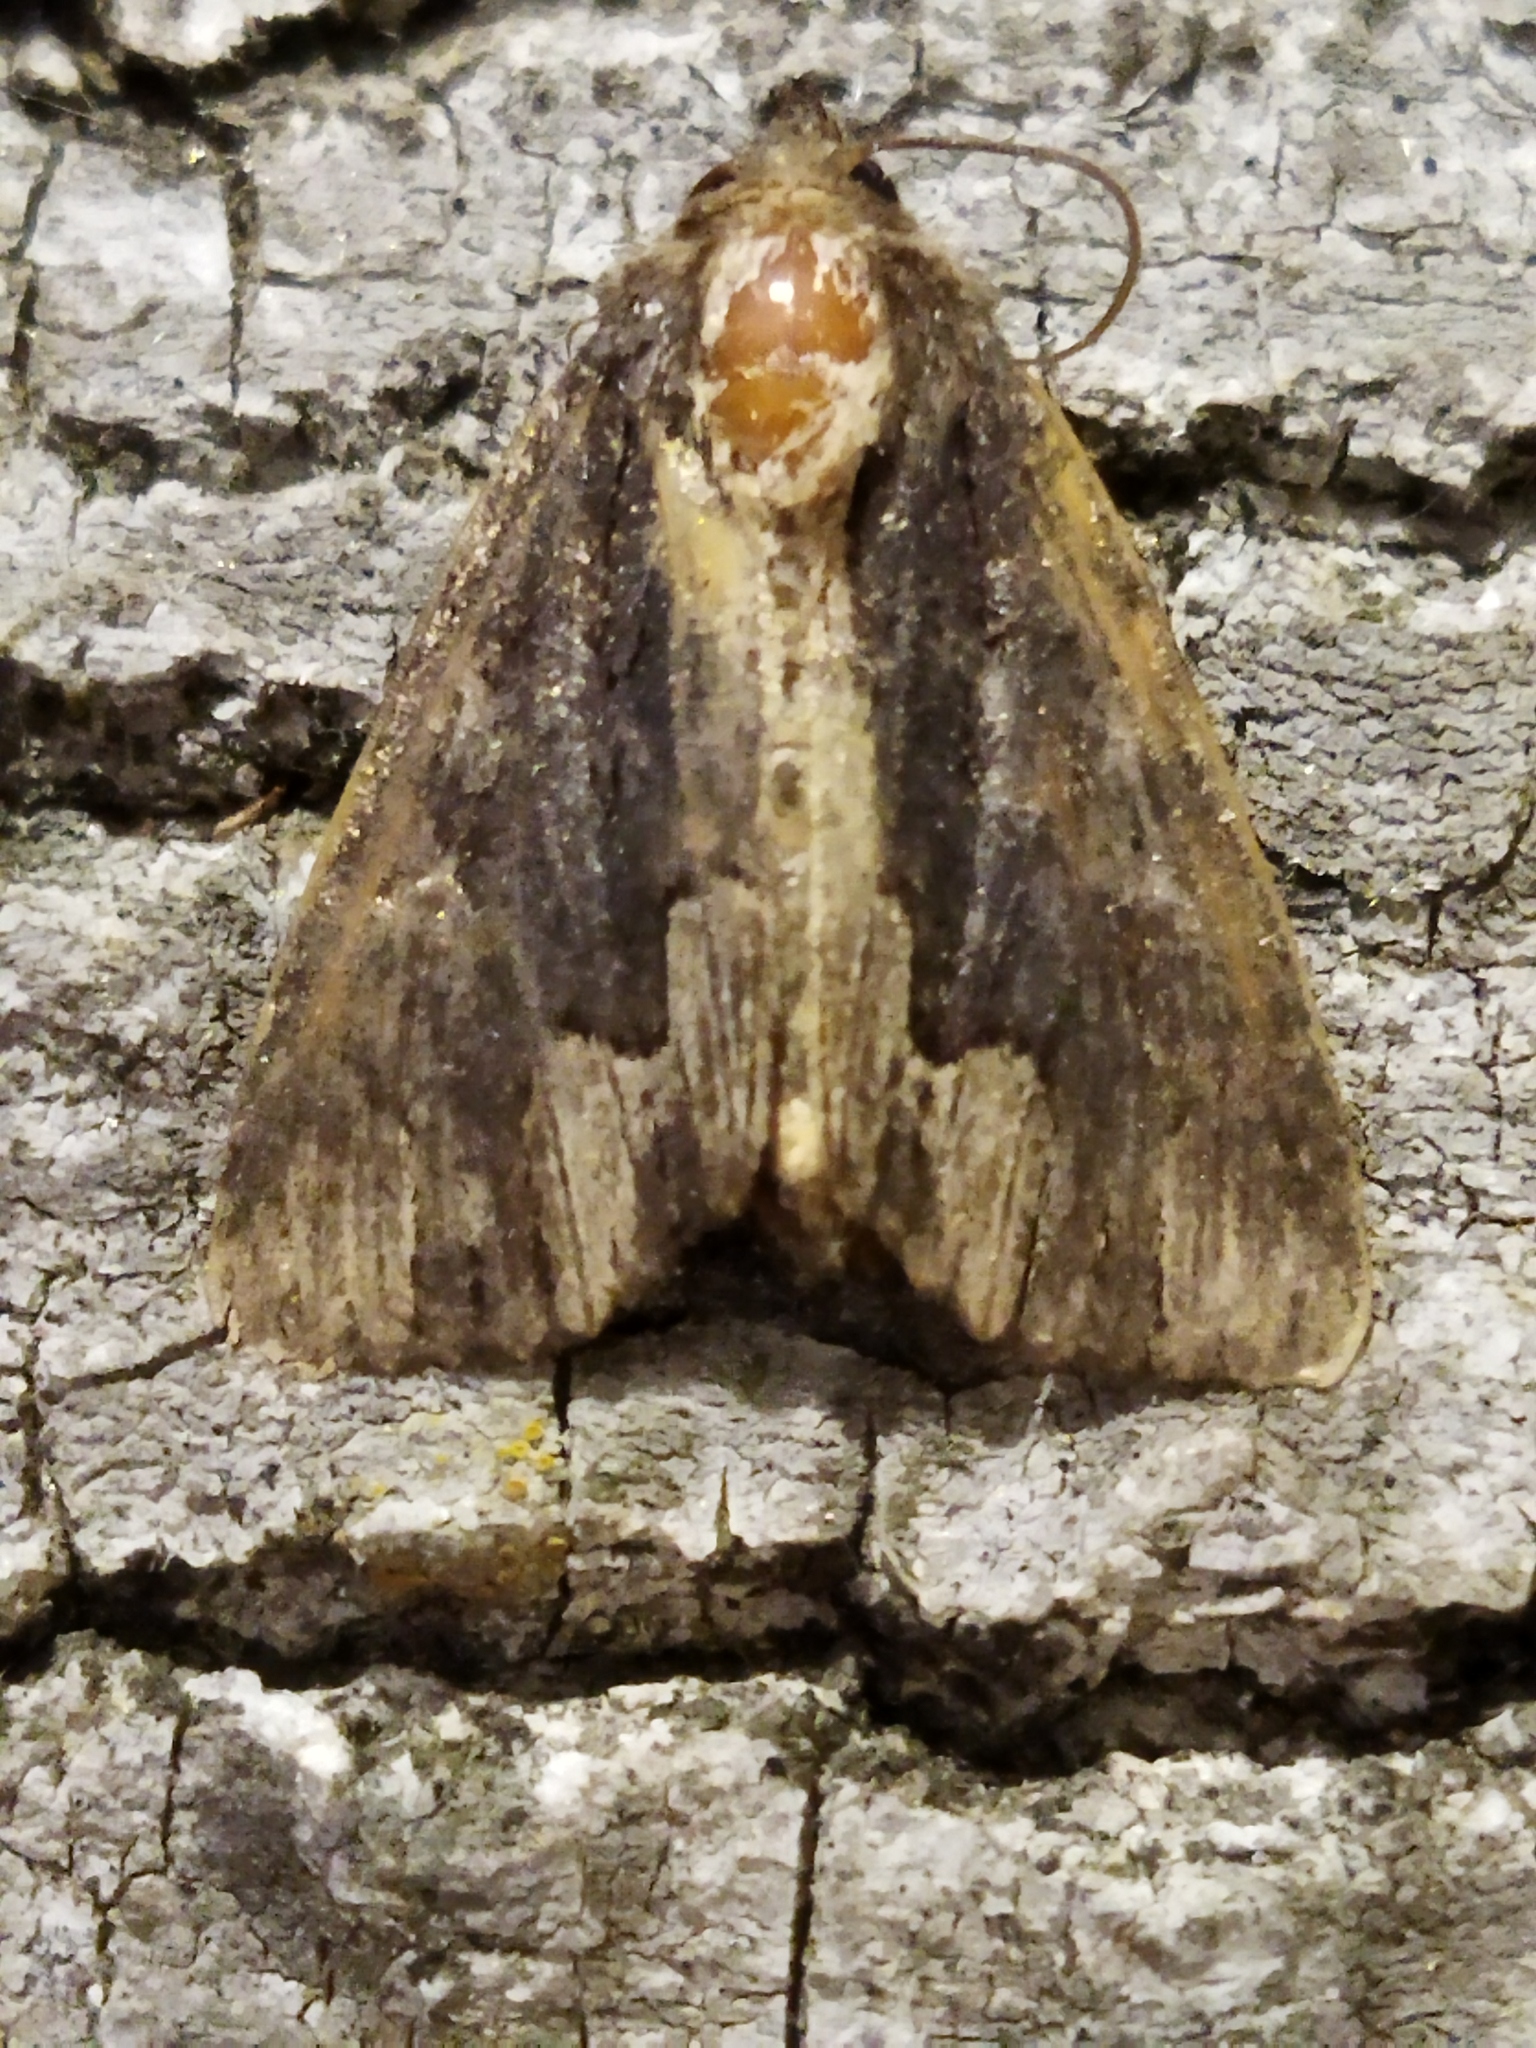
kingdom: Animalia
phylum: Arthropoda
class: Insecta
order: Lepidoptera
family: Noctuidae
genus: Dypterygia
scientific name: Dypterygia scabriuscula
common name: Bird's wing
